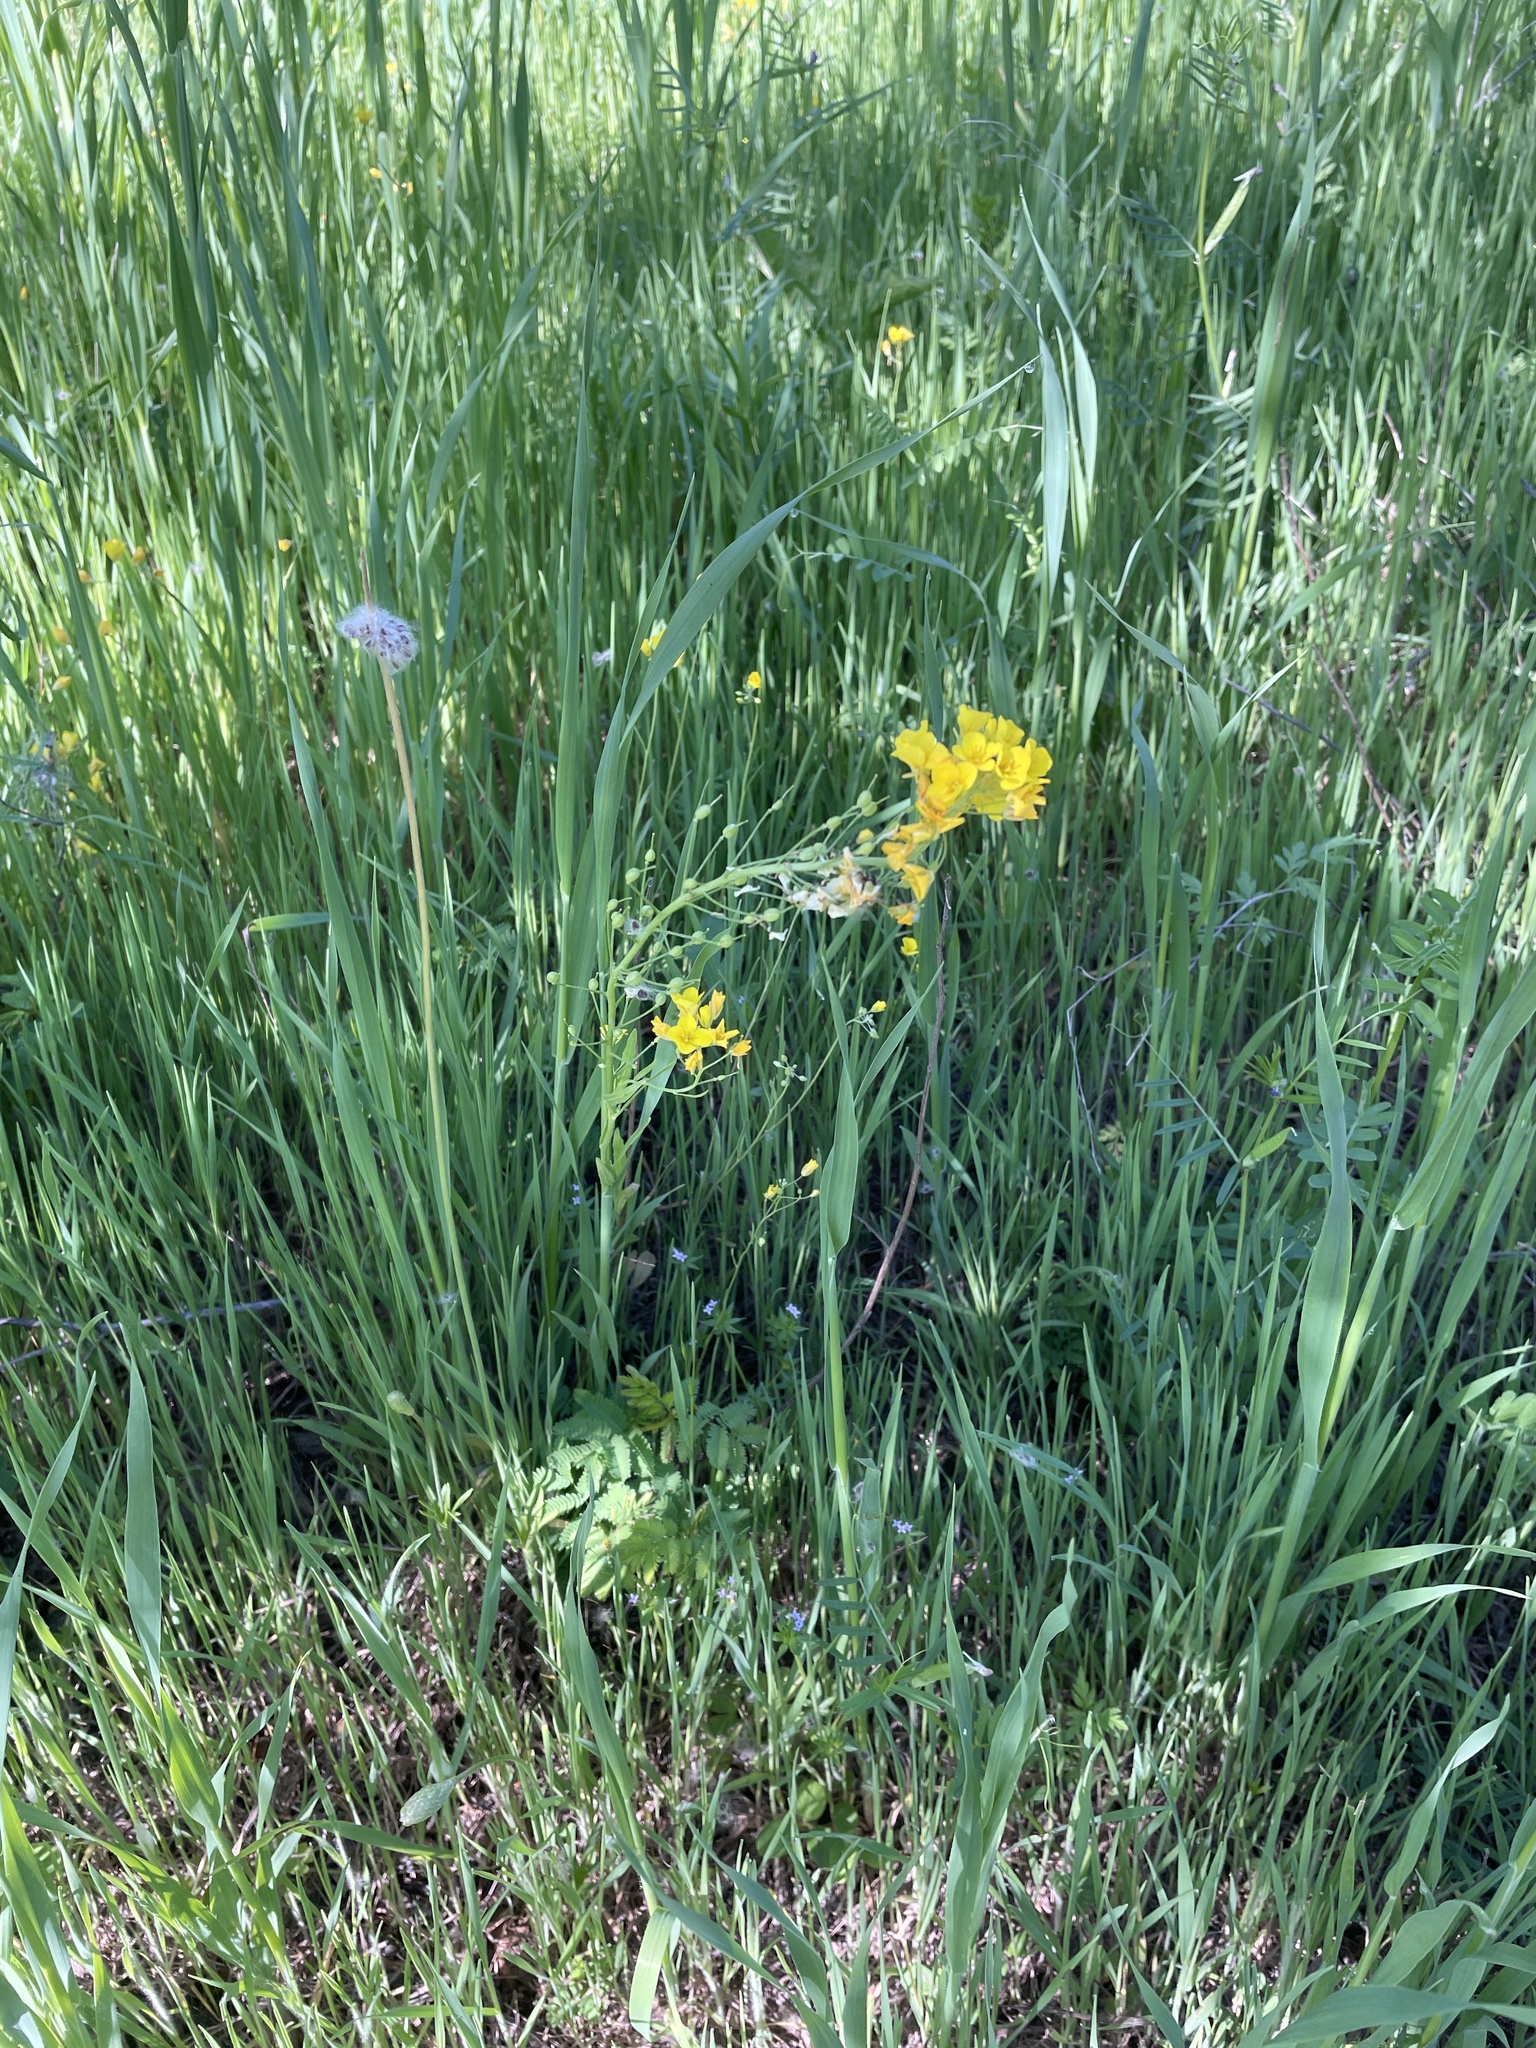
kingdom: Plantae
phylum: Tracheophyta
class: Magnoliopsida
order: Brassicales
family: Brassicaceae
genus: Physaria
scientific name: Physaria gracilis
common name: Spreading bladderpod
